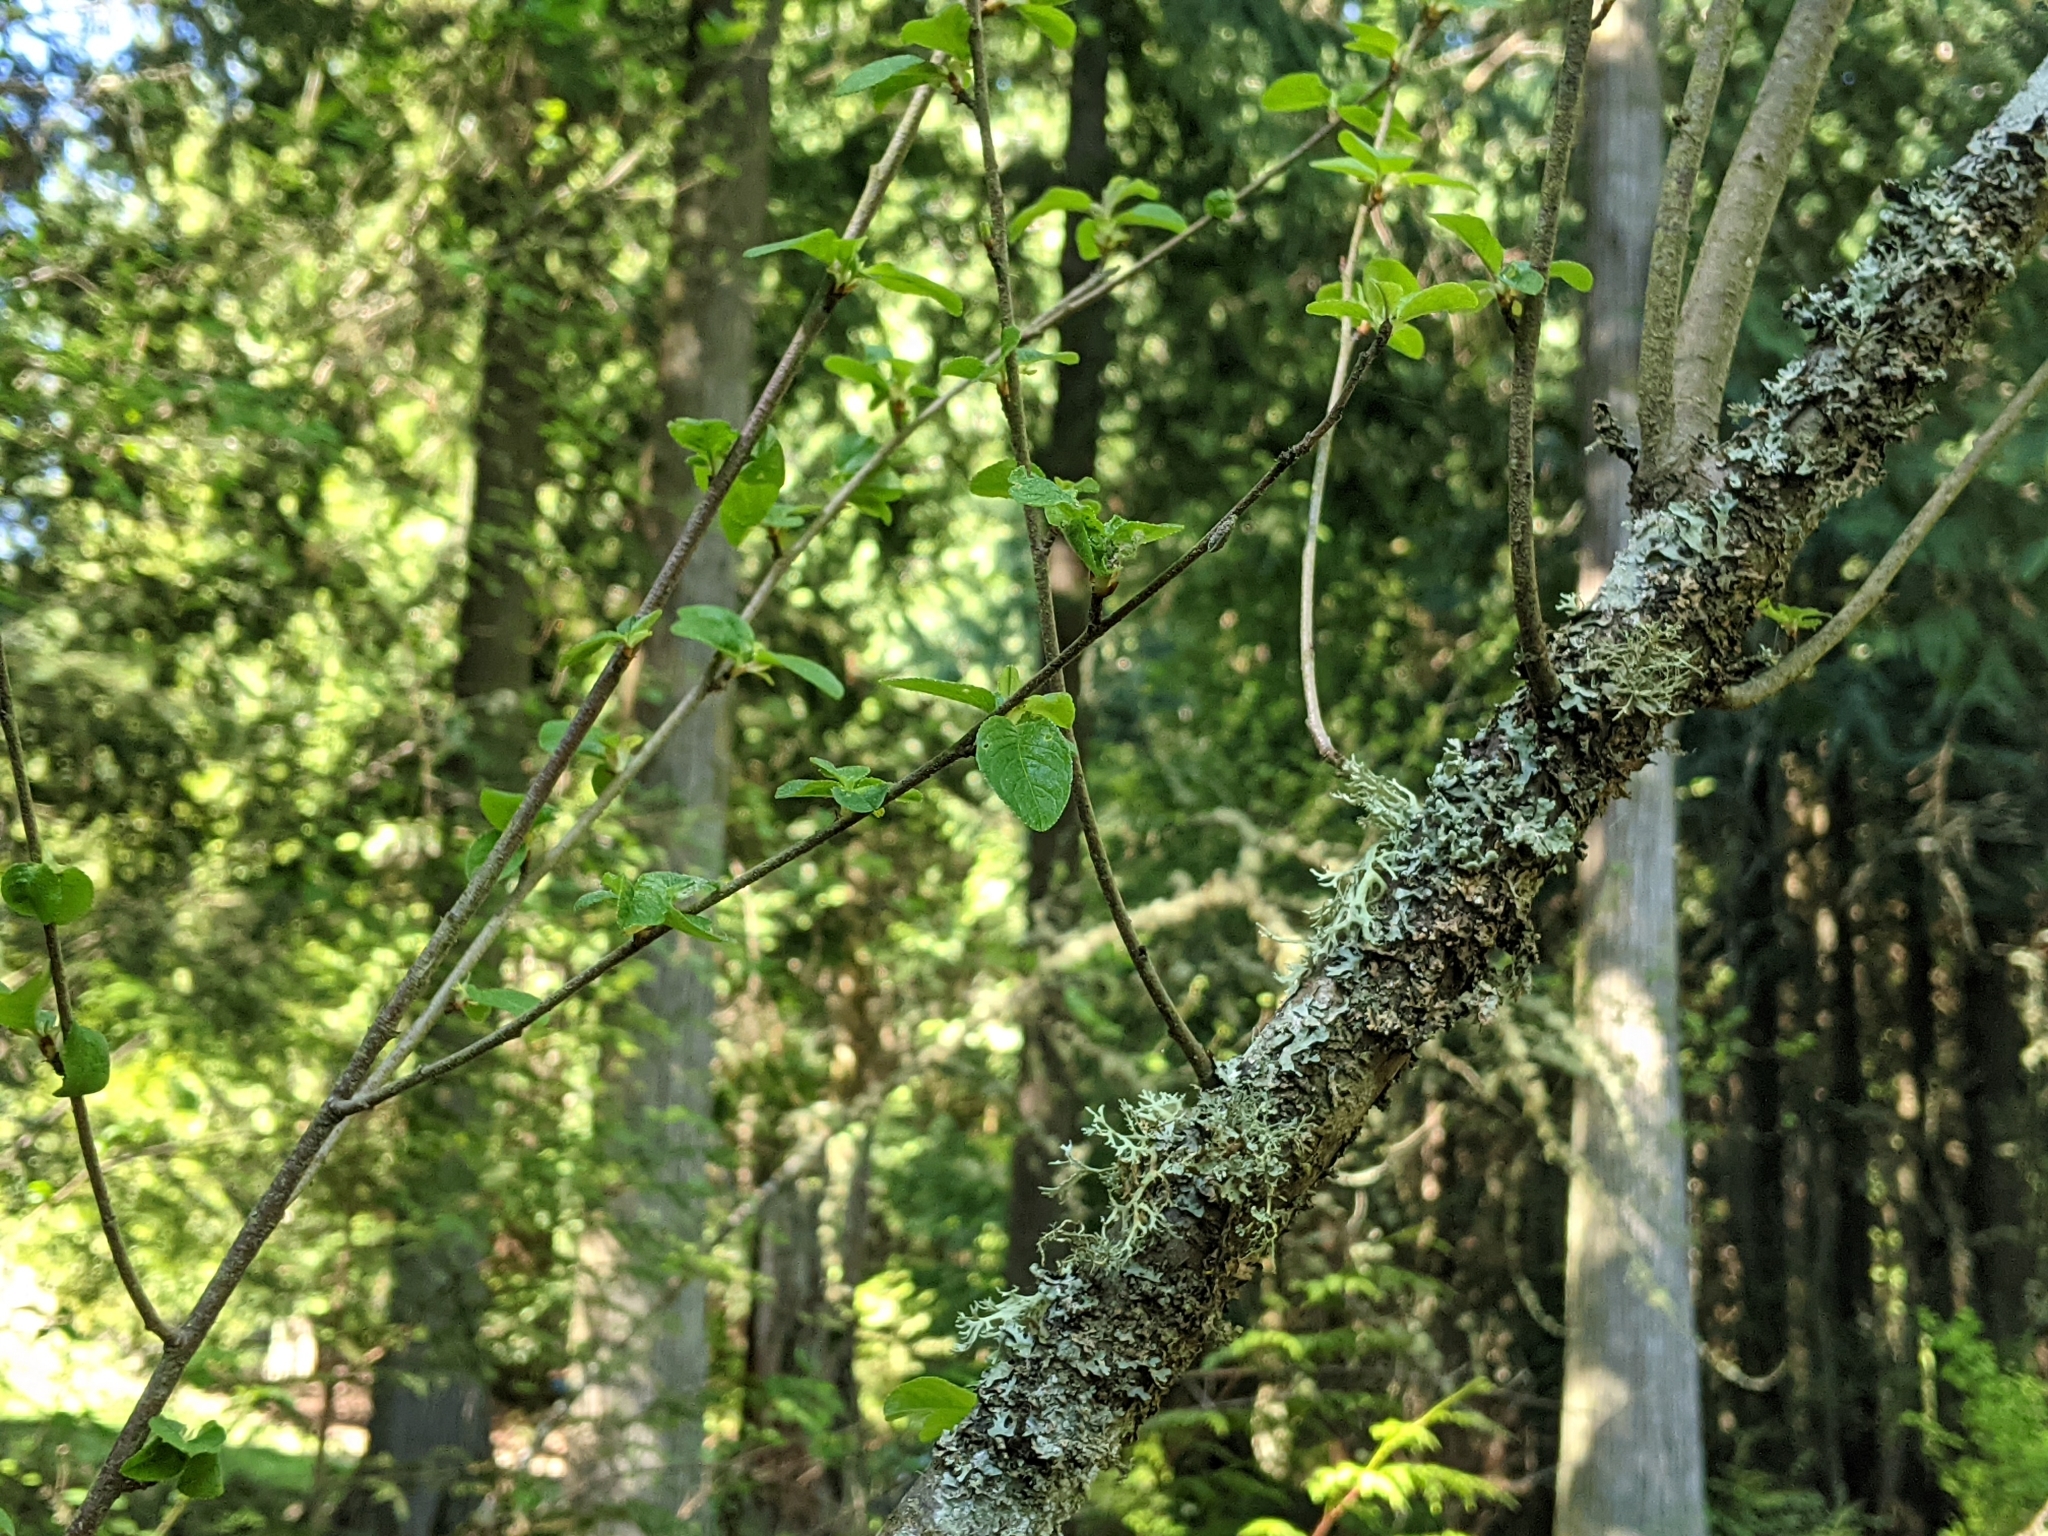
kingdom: Plantae
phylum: Tracheophyta
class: Magnoliopsida
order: Rosales
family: Rosaceae
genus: Prunus
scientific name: Prunus emarginata
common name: Bitter cherry
